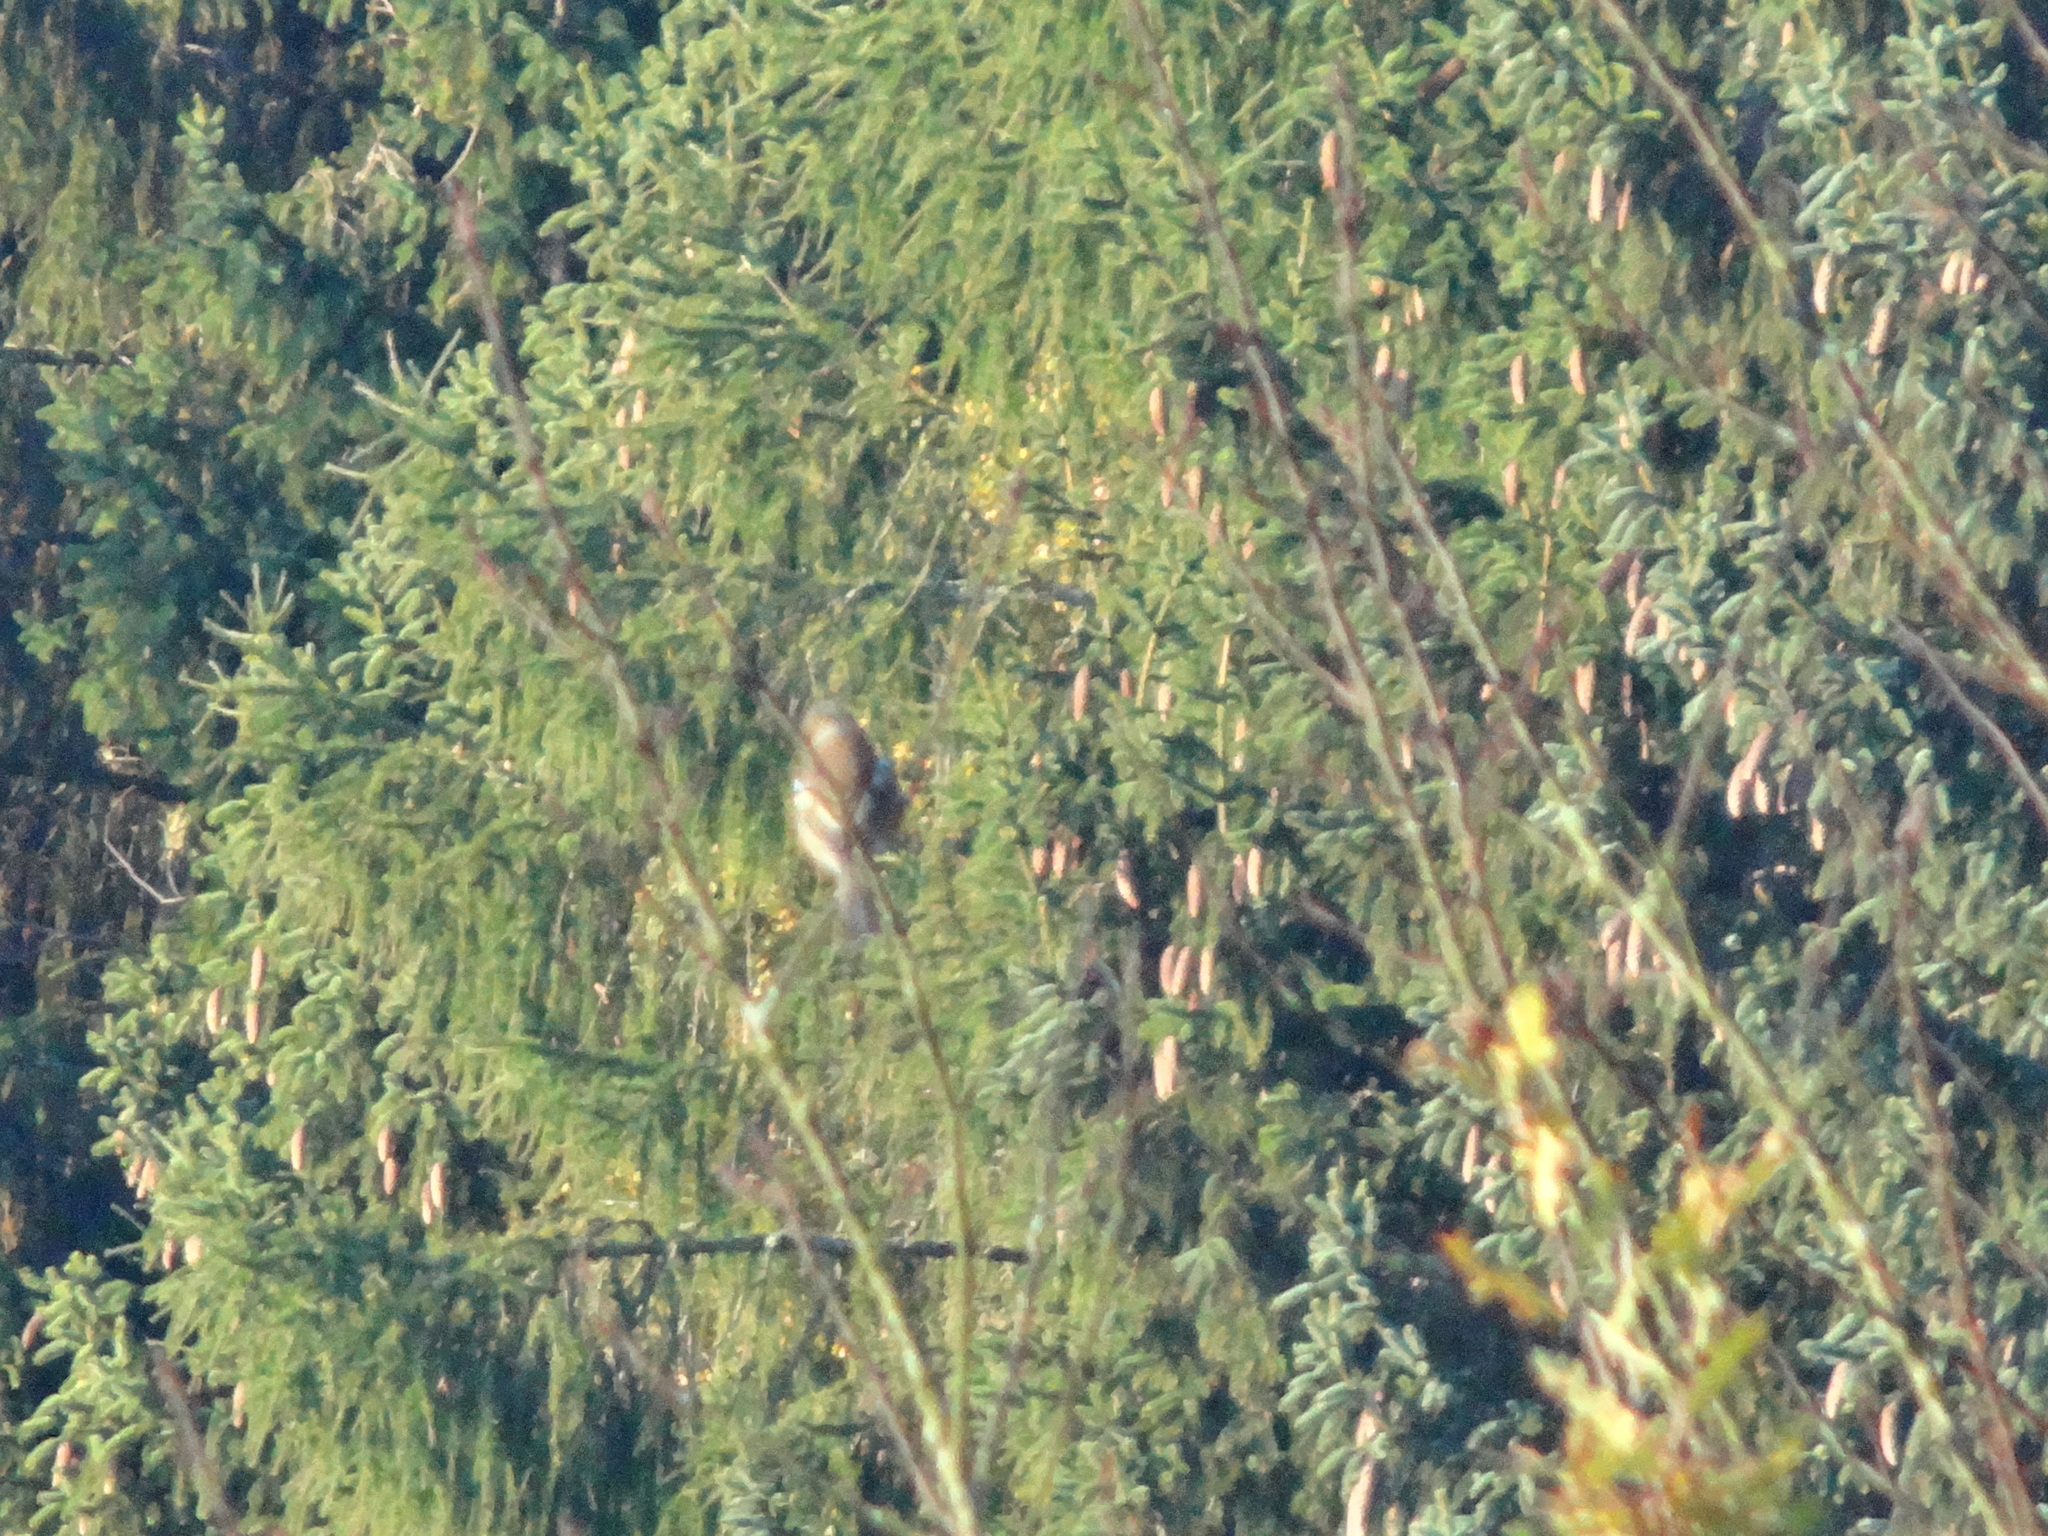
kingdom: Animalia
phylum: Chordata
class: Aves
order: Passeriformes
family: Fringillidae
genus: Fringilla
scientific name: Fringilla coelebs
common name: Common chaffinch
